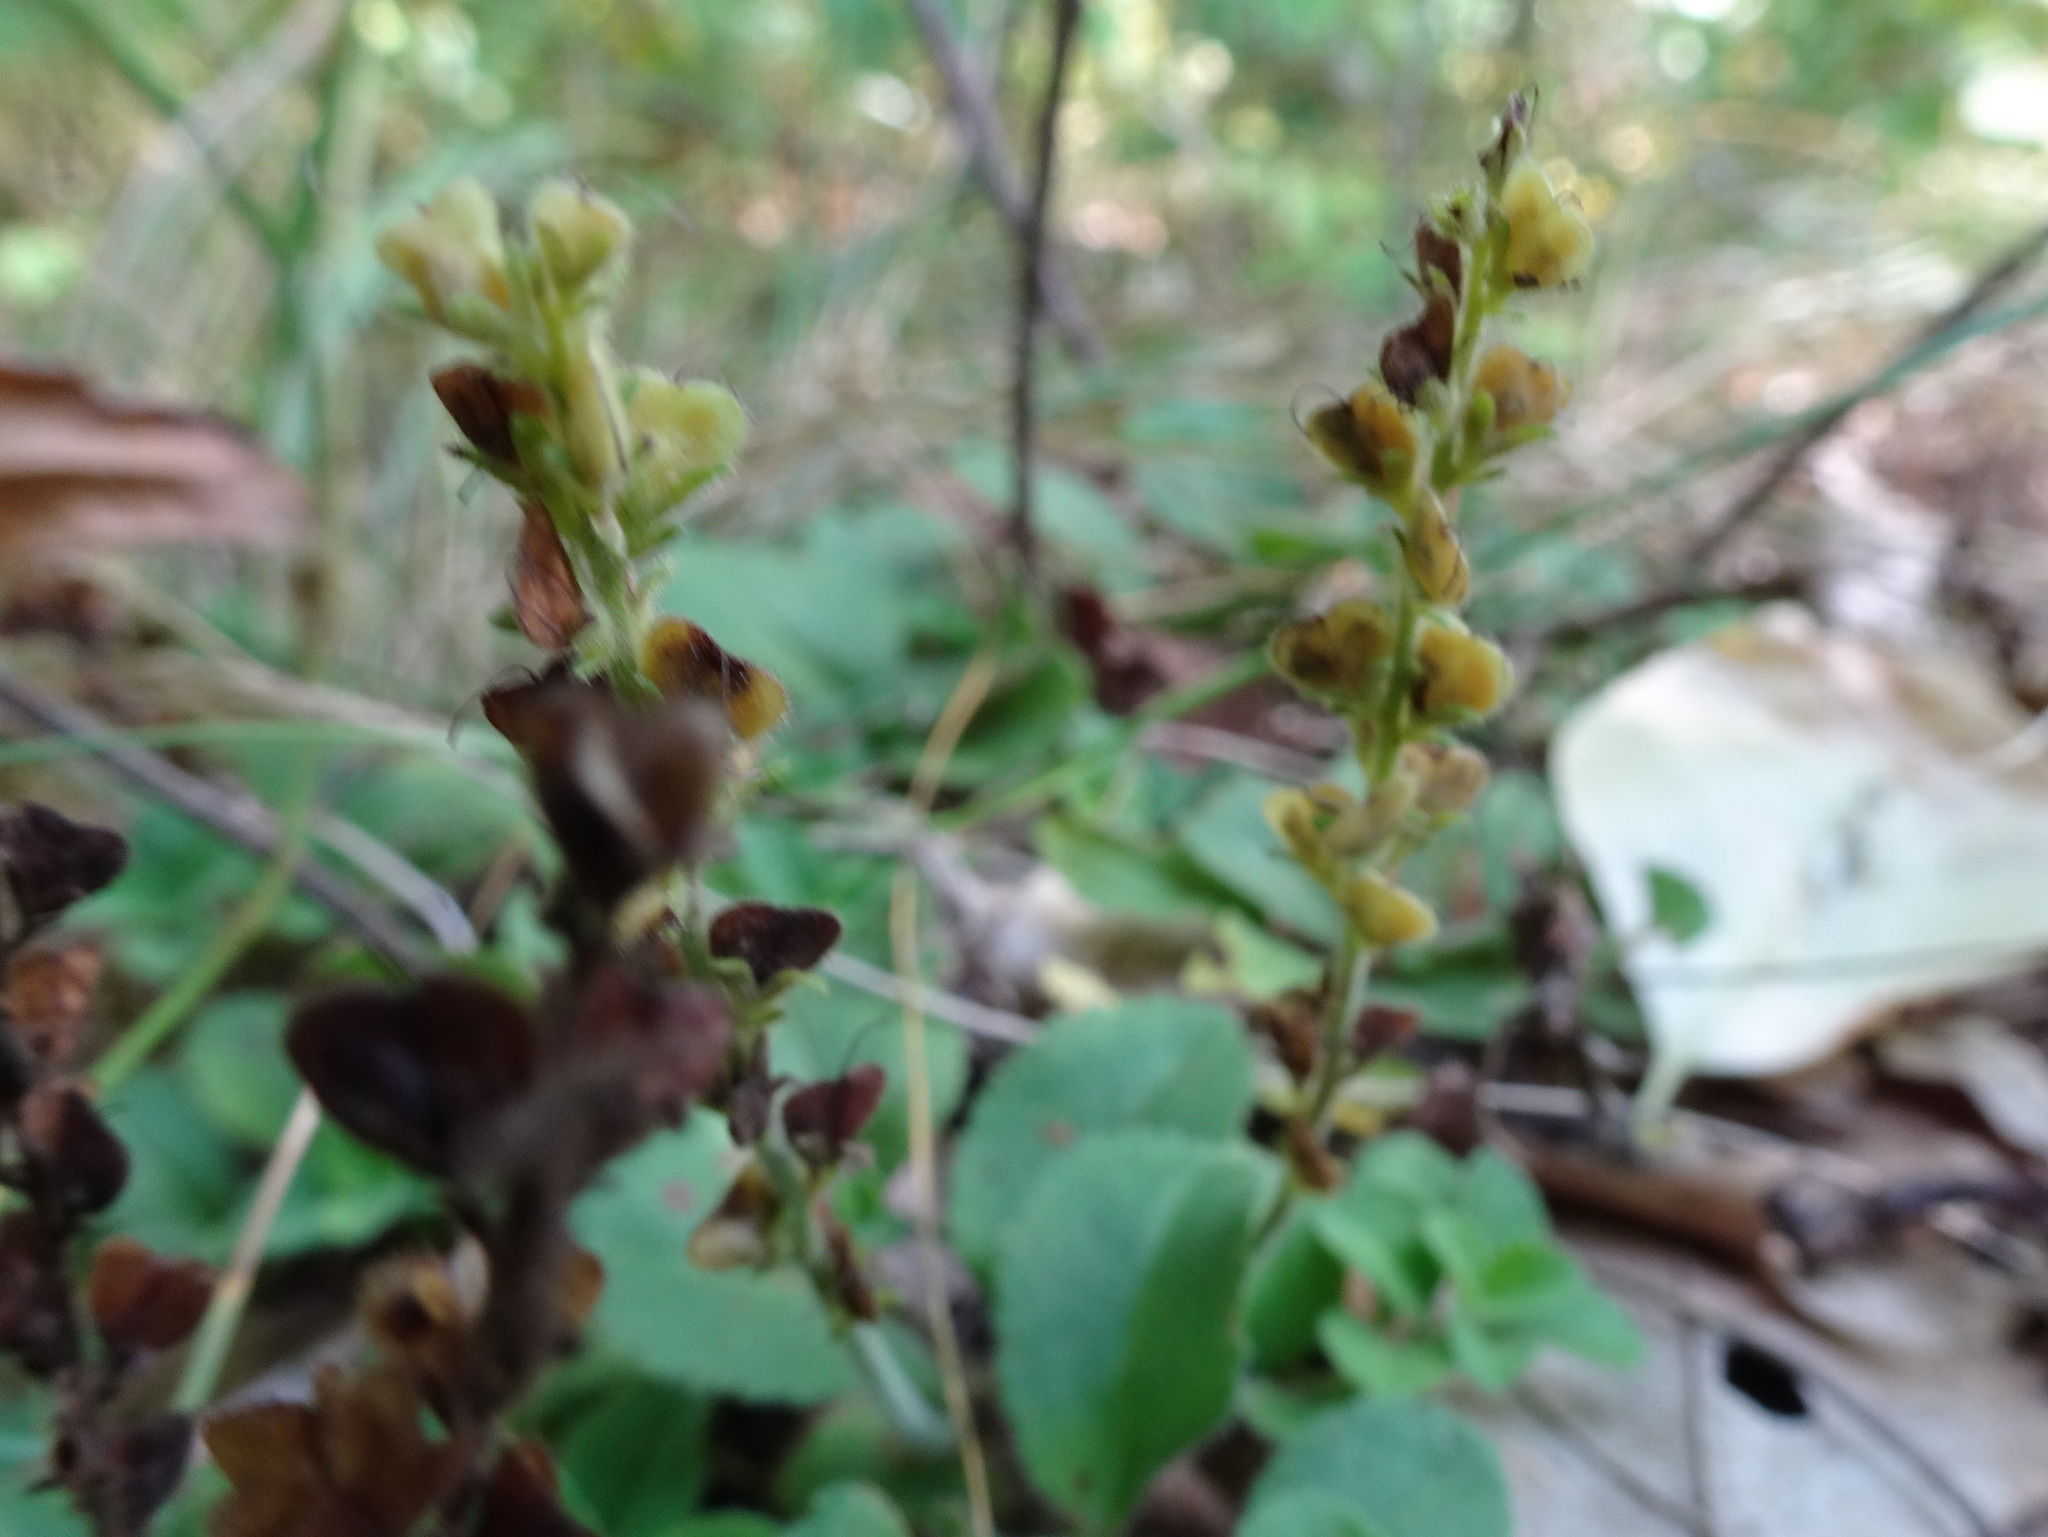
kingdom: Plantae
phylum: Tracheophyta
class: Magnoliopsida
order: Lamiales
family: Plantaginaceae
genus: Veronica
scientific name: Veronica officinalis
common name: Common speedwell
